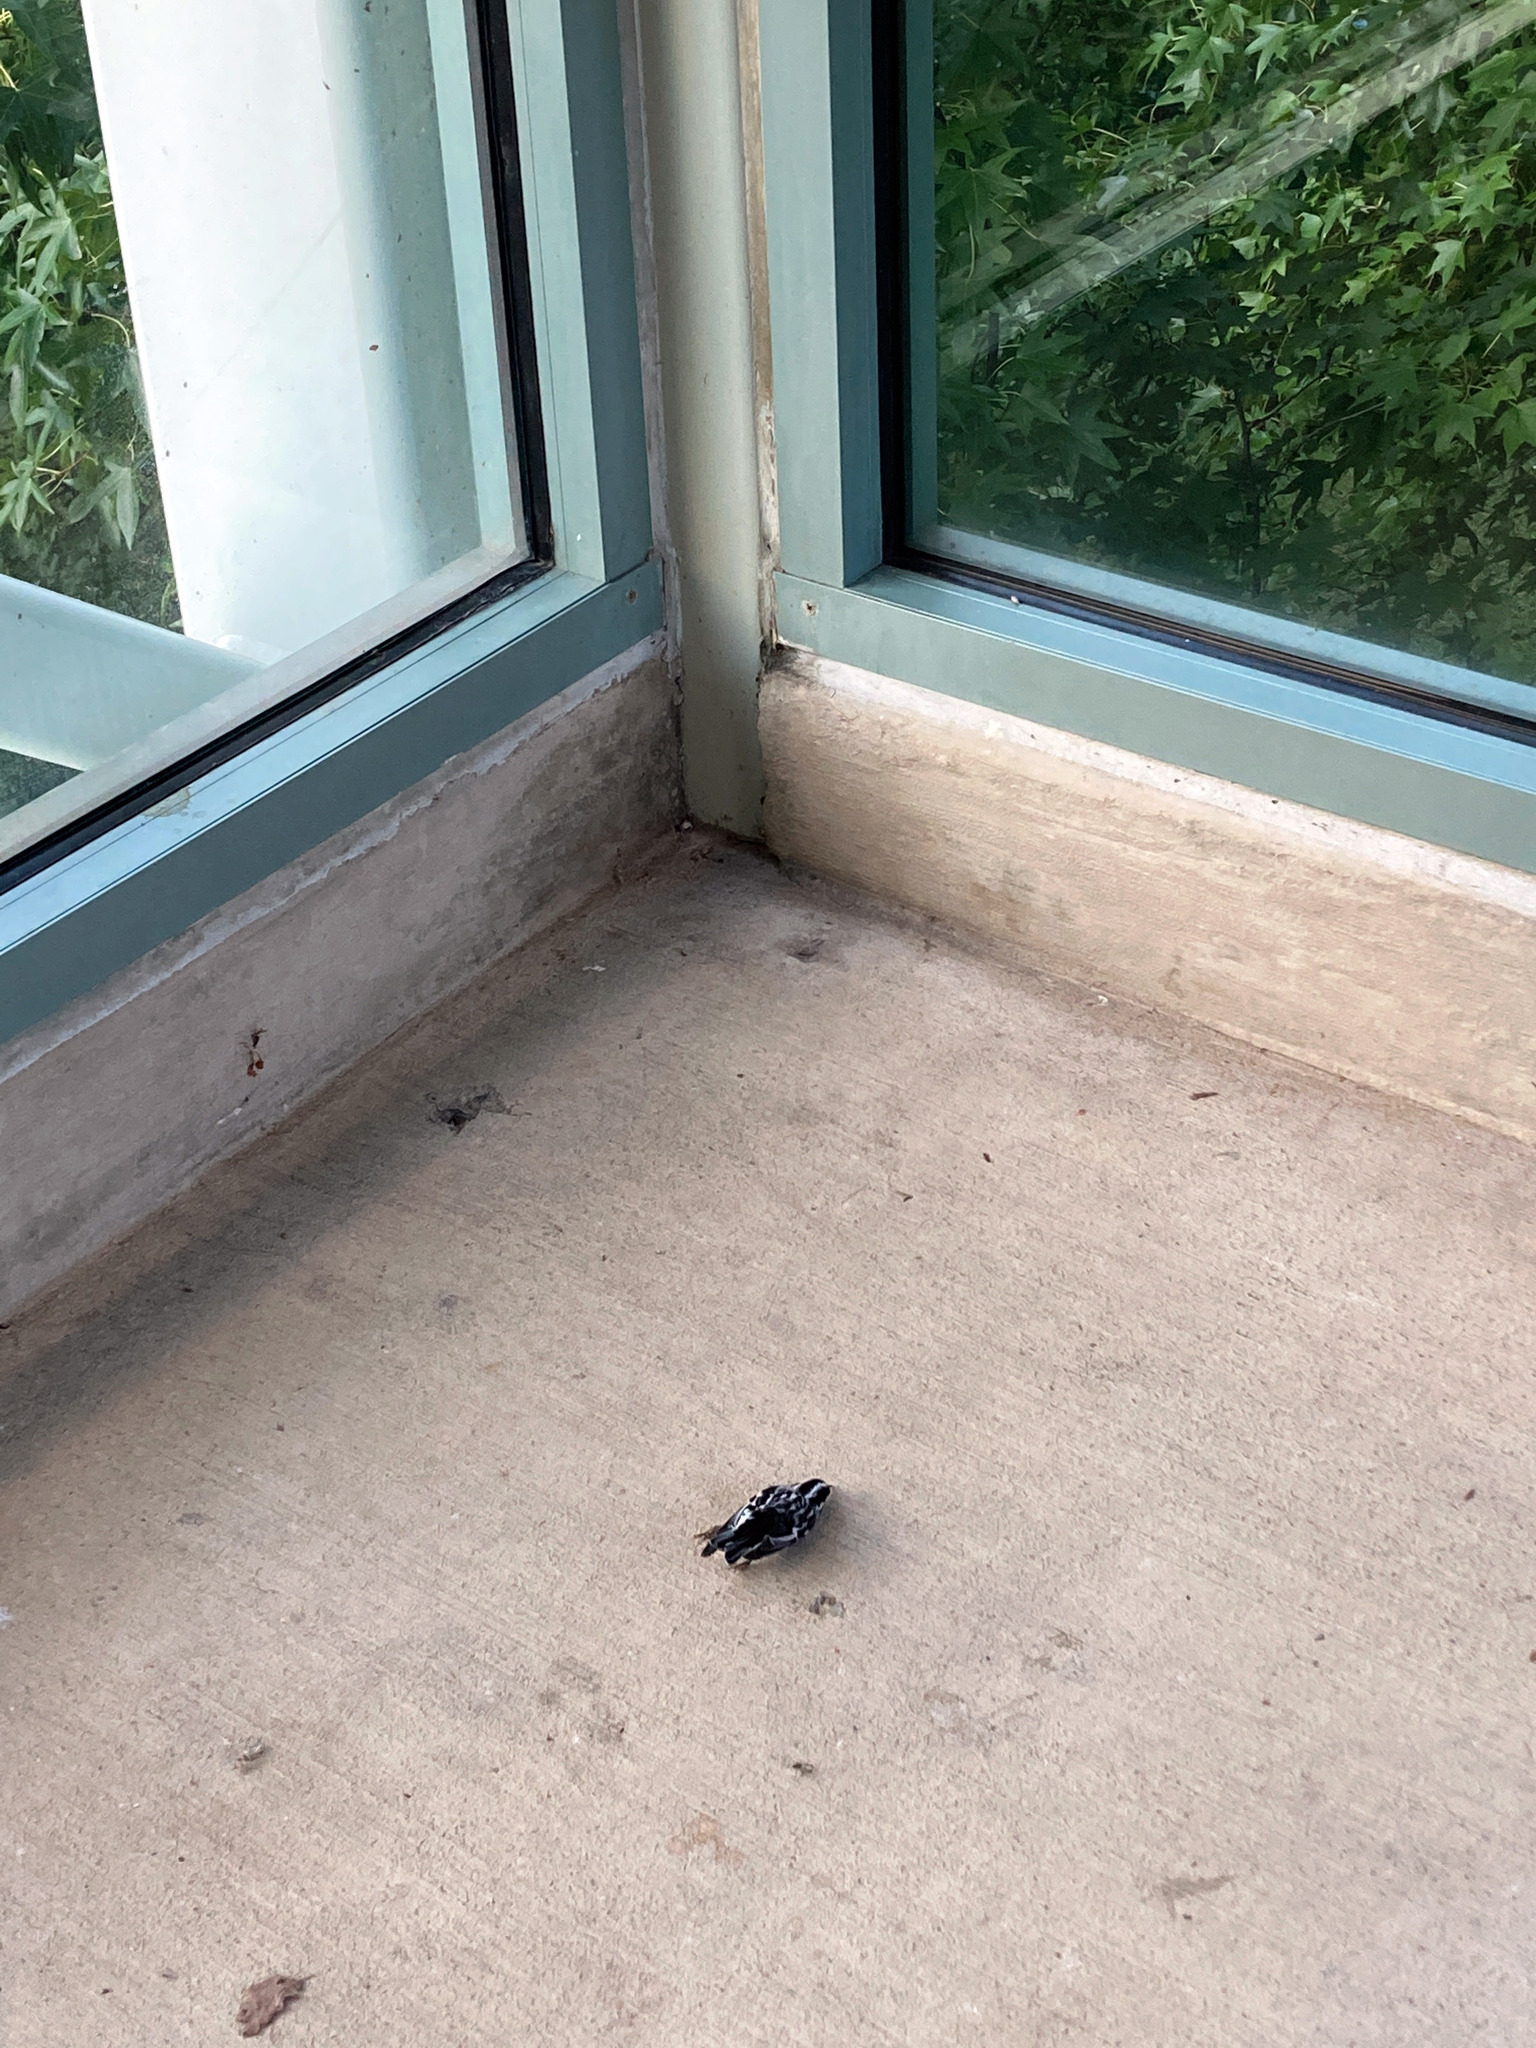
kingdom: Animalia
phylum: Chordata
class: Aves
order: Passeriformes
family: Parulidae
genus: Mniotilta
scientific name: Mniotilta varia
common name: Black-and-white warbler
